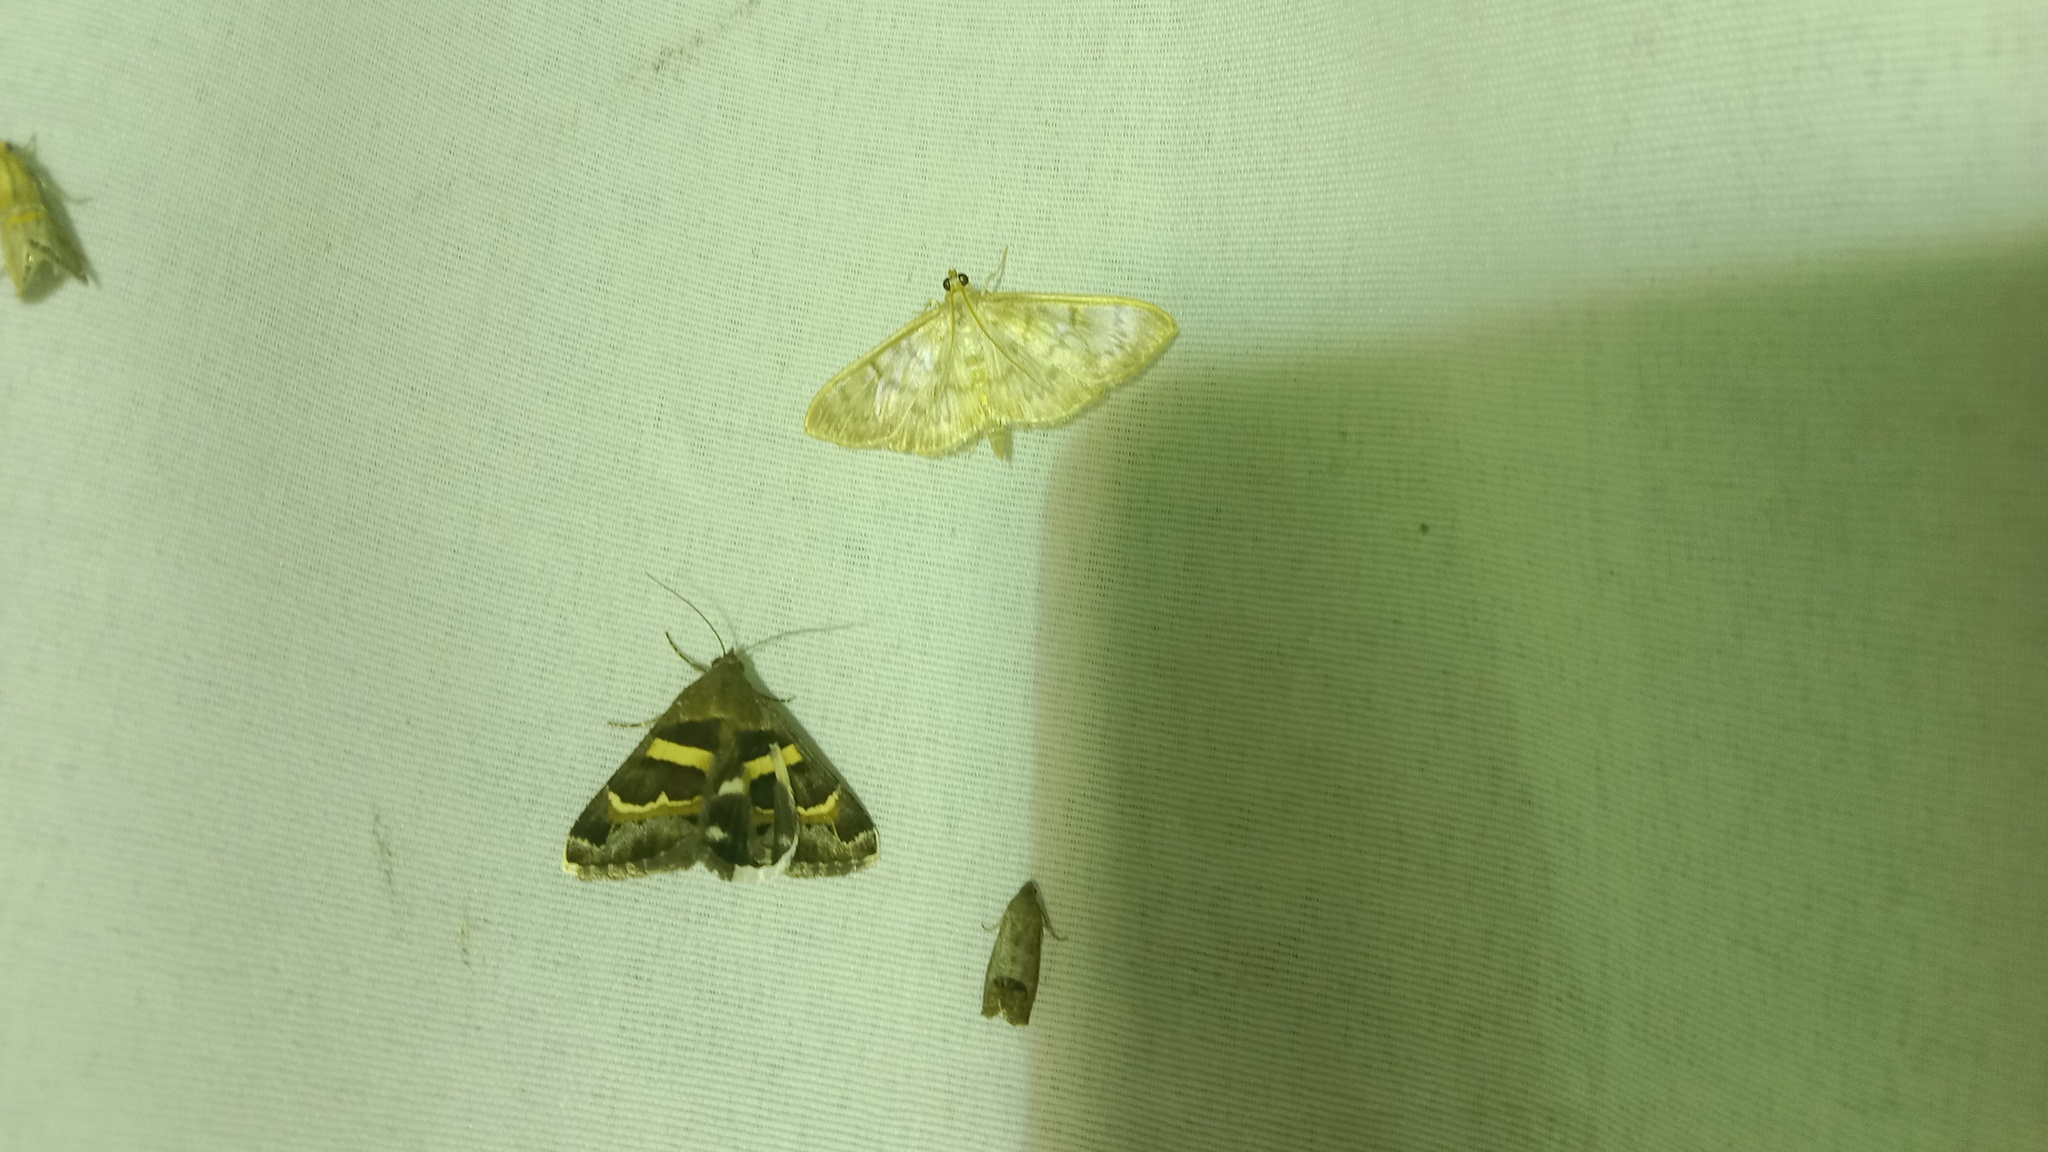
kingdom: Animalia
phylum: Arthropoda
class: Insecta
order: Lepidoptera
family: Erebidae
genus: Grammodes
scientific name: Grammodes stolida
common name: Geometrician
